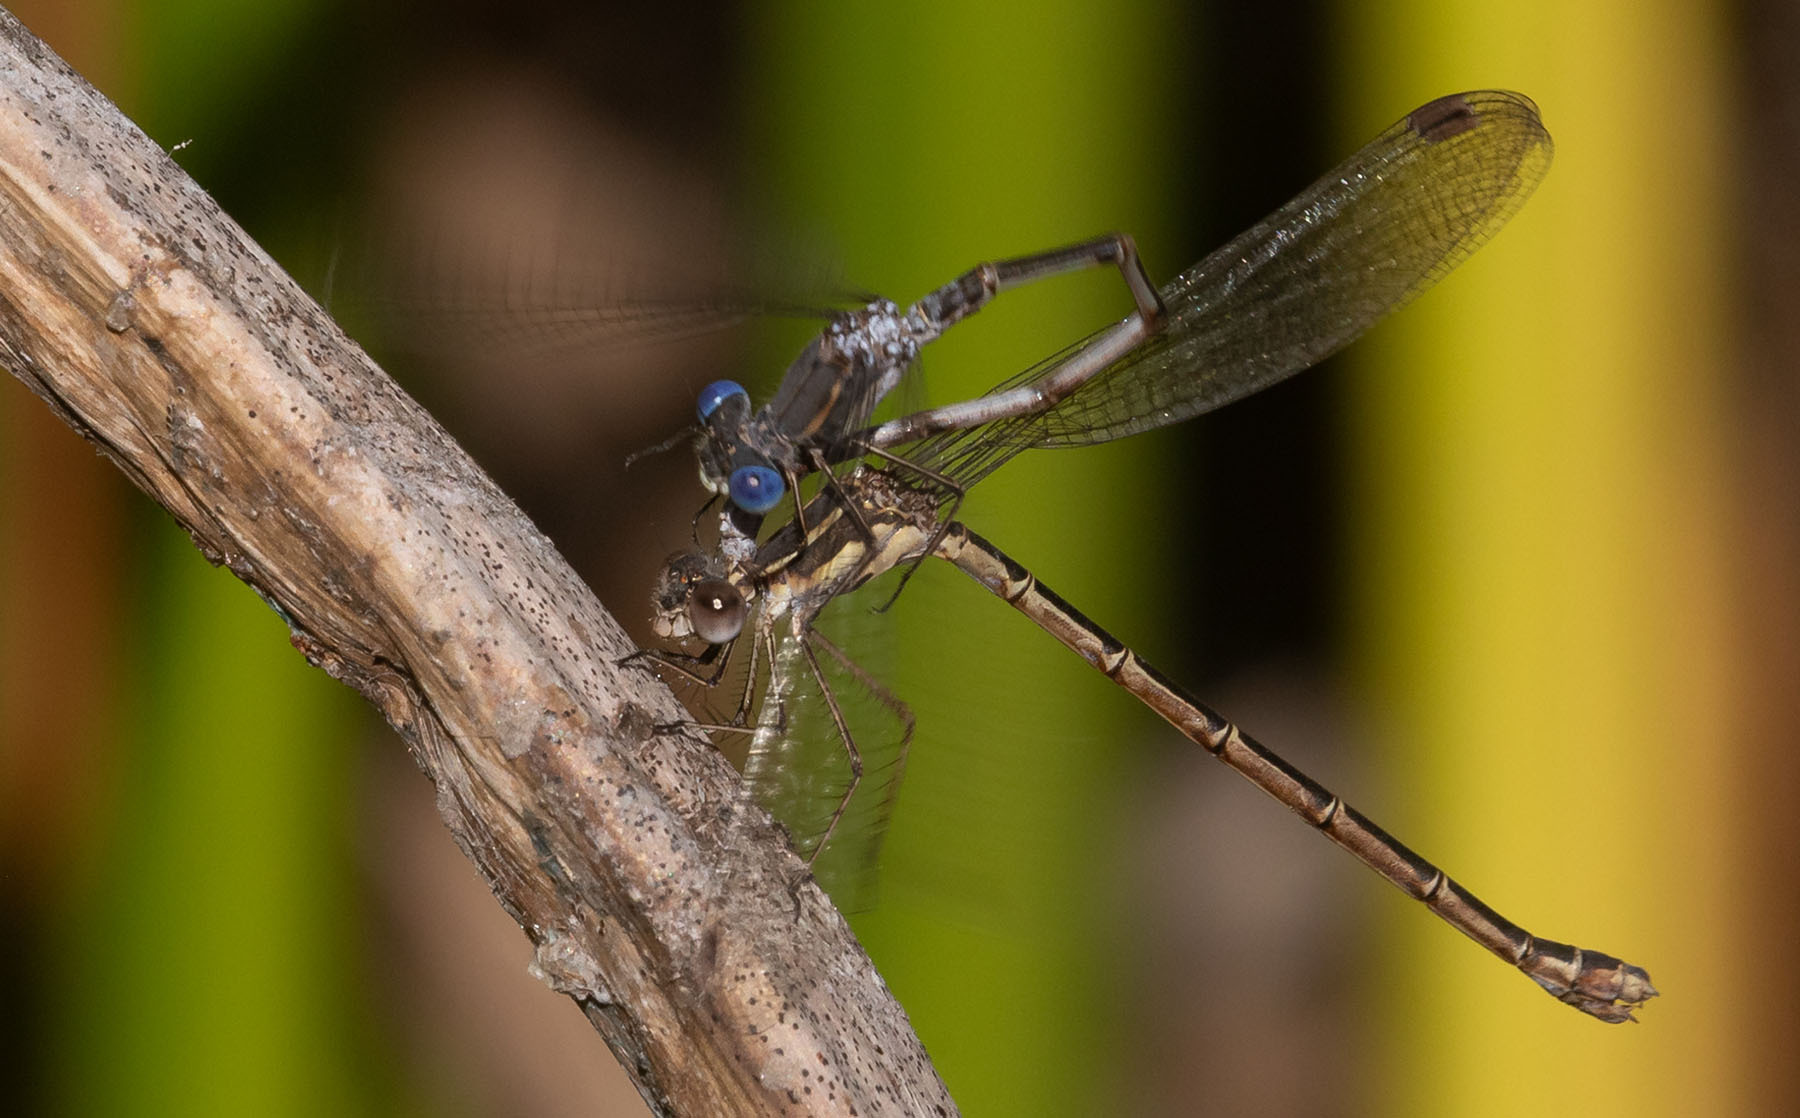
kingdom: Animalia
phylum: Arthropoda
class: Insecta
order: Odonata
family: Lestidae
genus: Lestes
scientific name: Lestes congener
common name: Spotted spreadwing
